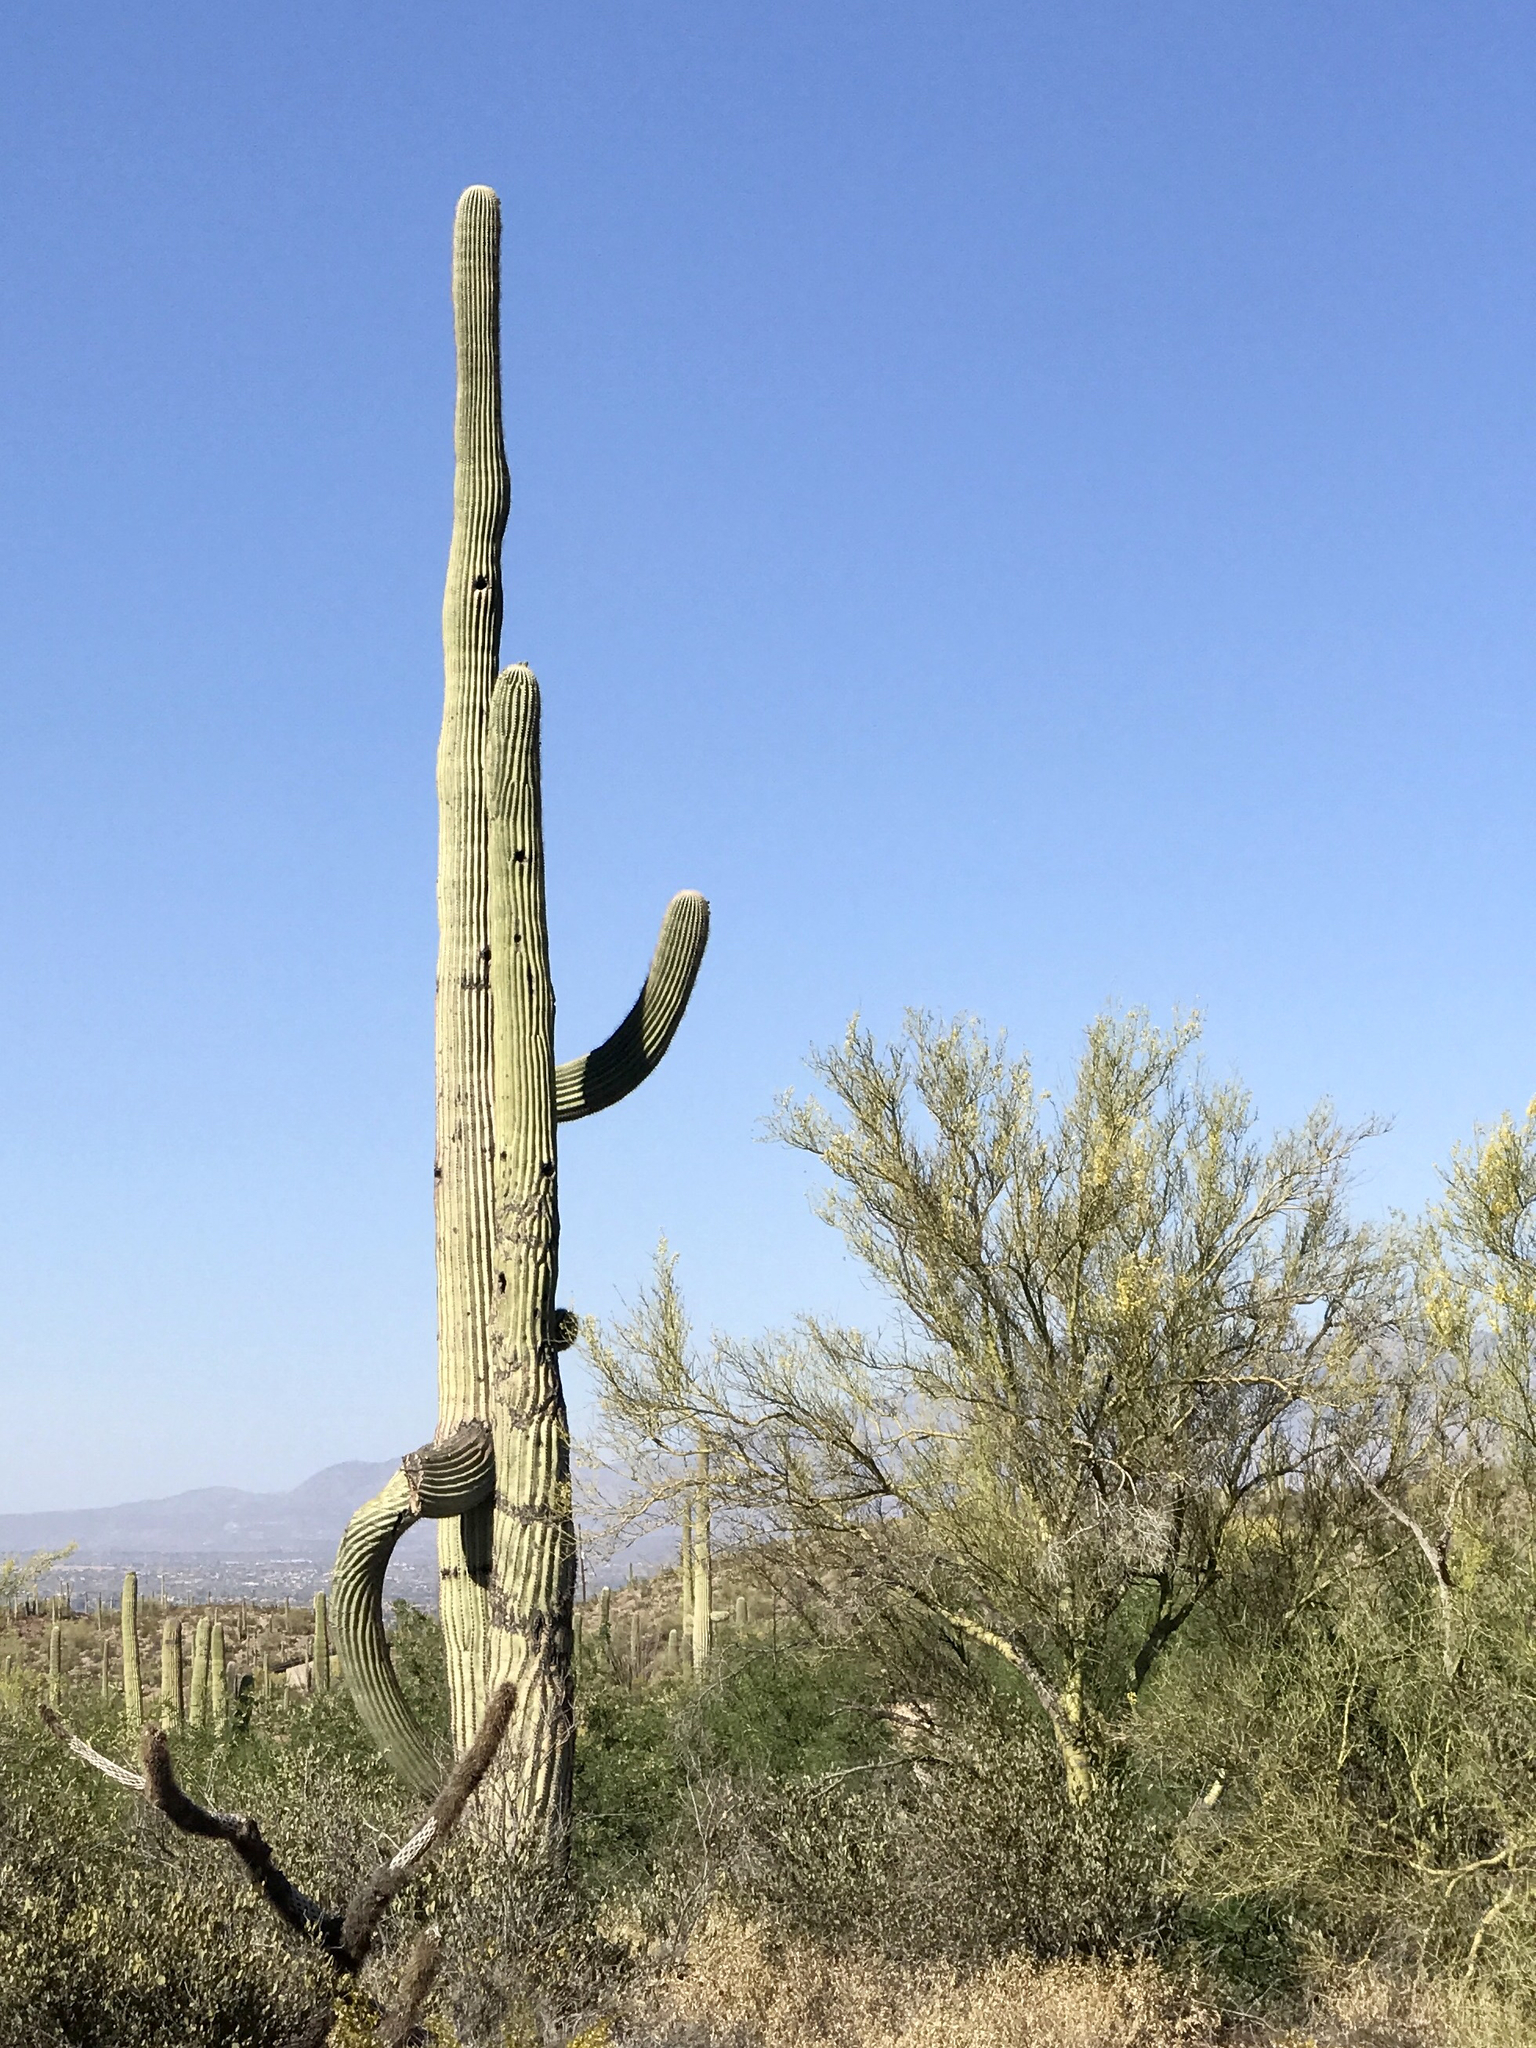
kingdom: Plantae
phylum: Tracheophyta
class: Magnoliopsida
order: Caryophyllales
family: Cactaceae
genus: Carnegiea
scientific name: Carnegiea gigantea
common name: Saguaro
